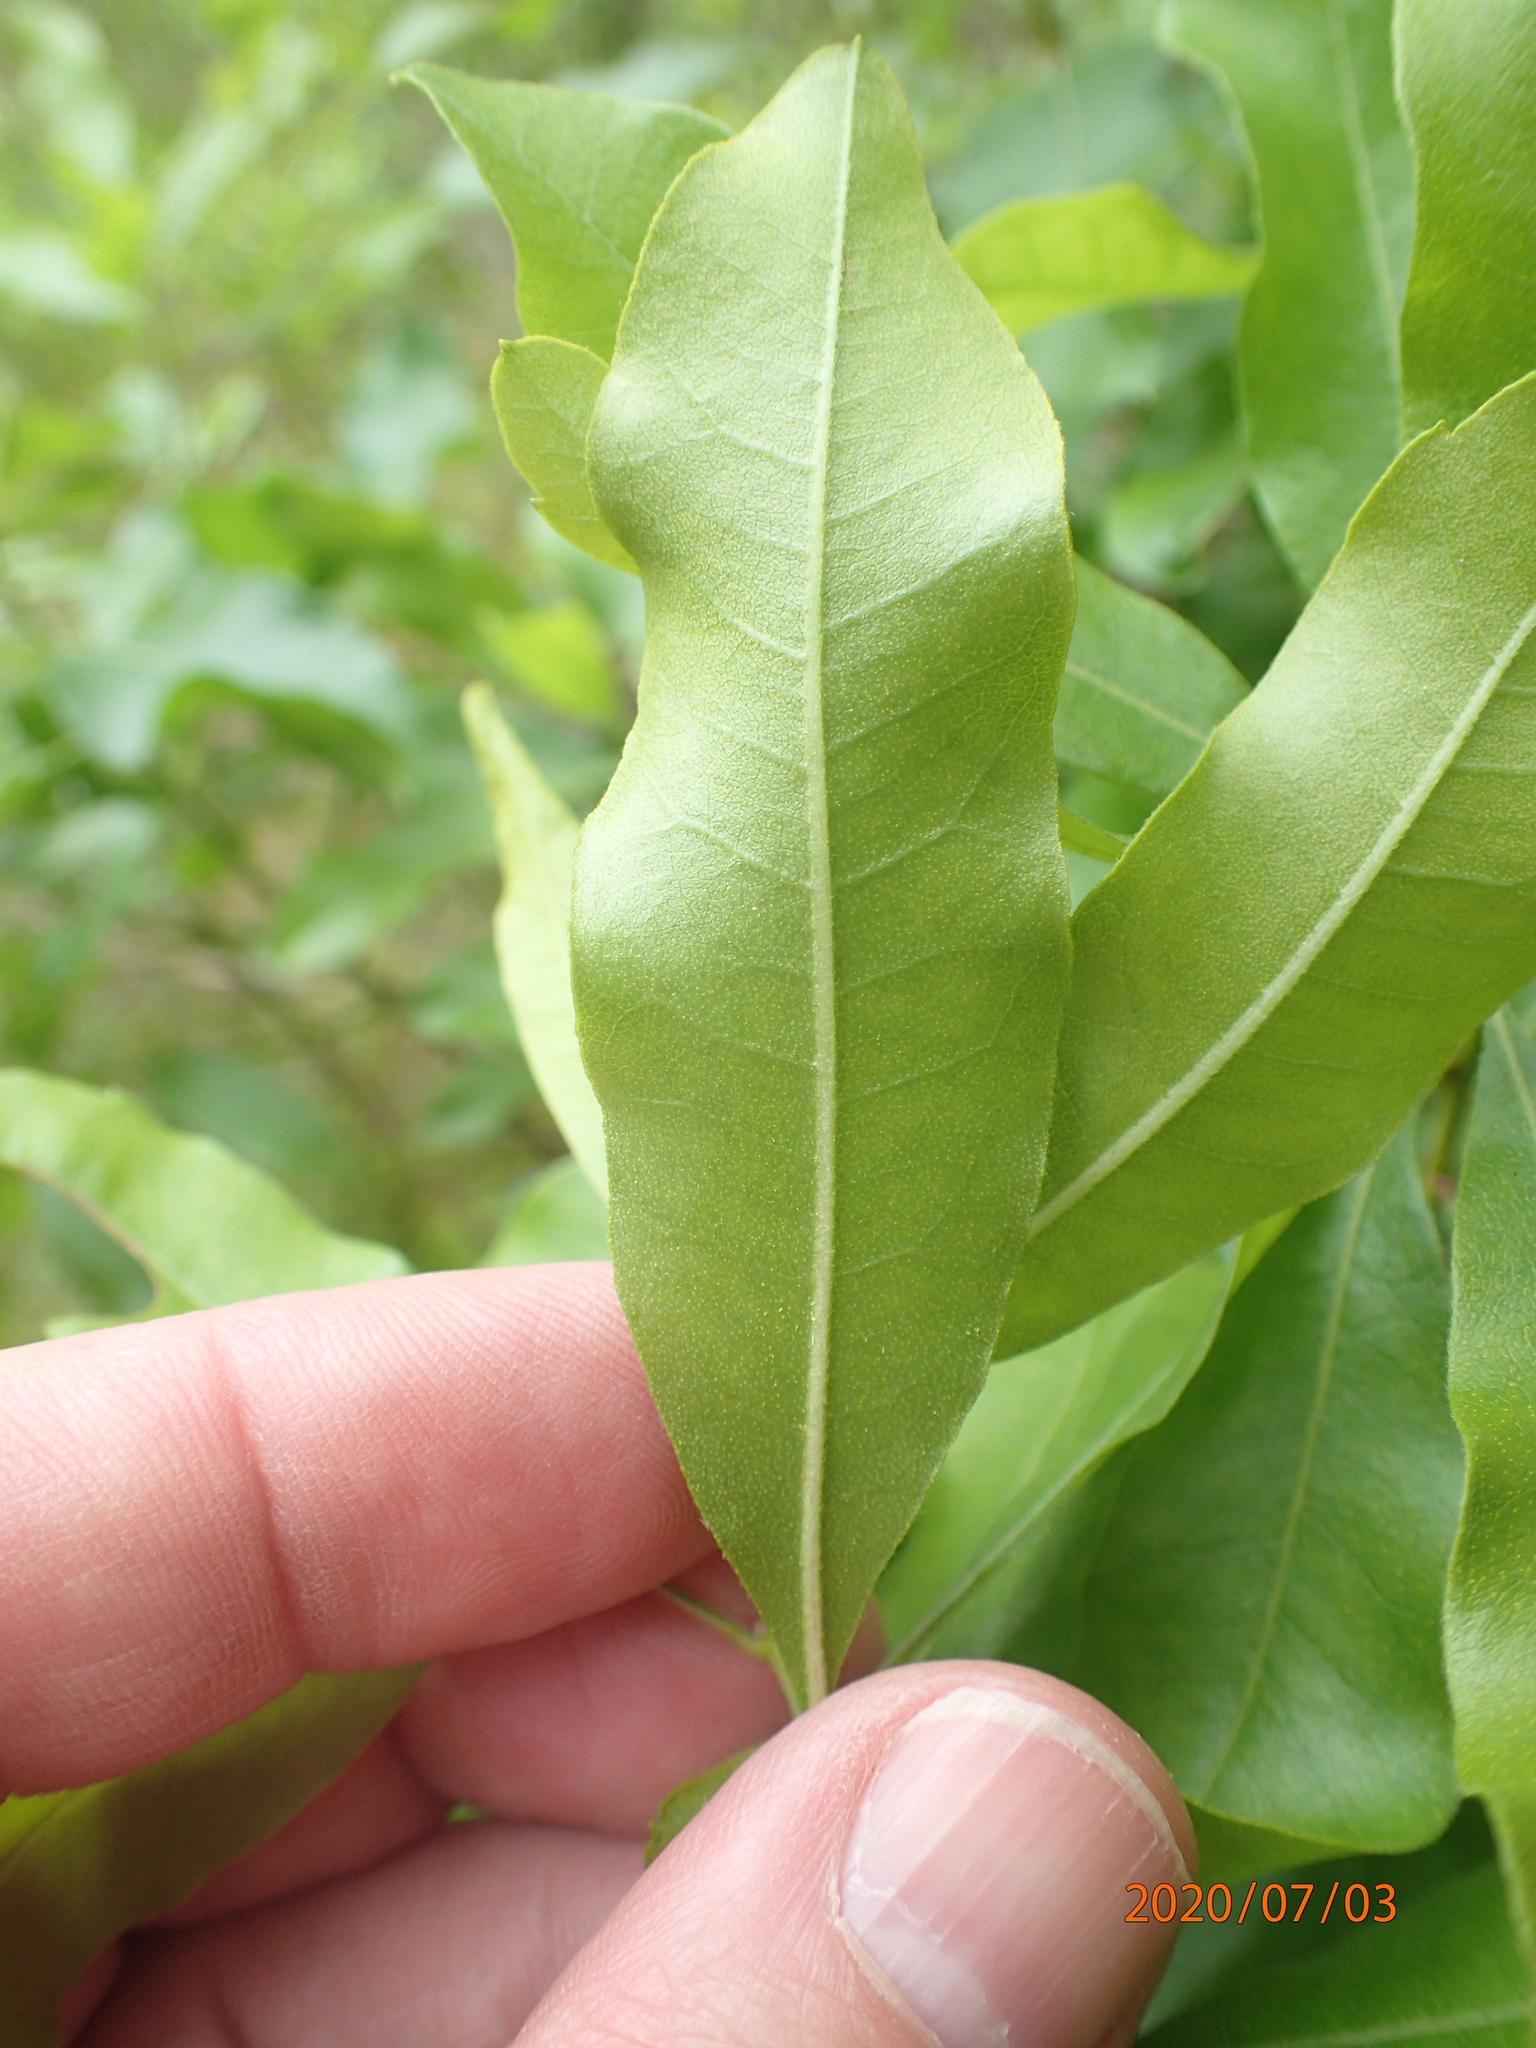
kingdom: Plantae
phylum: Tracheophyta
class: Magnoliopsida
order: Fagales
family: Myricaceae
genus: Morella
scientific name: Morella pensylvanica
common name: Northern bayberry
